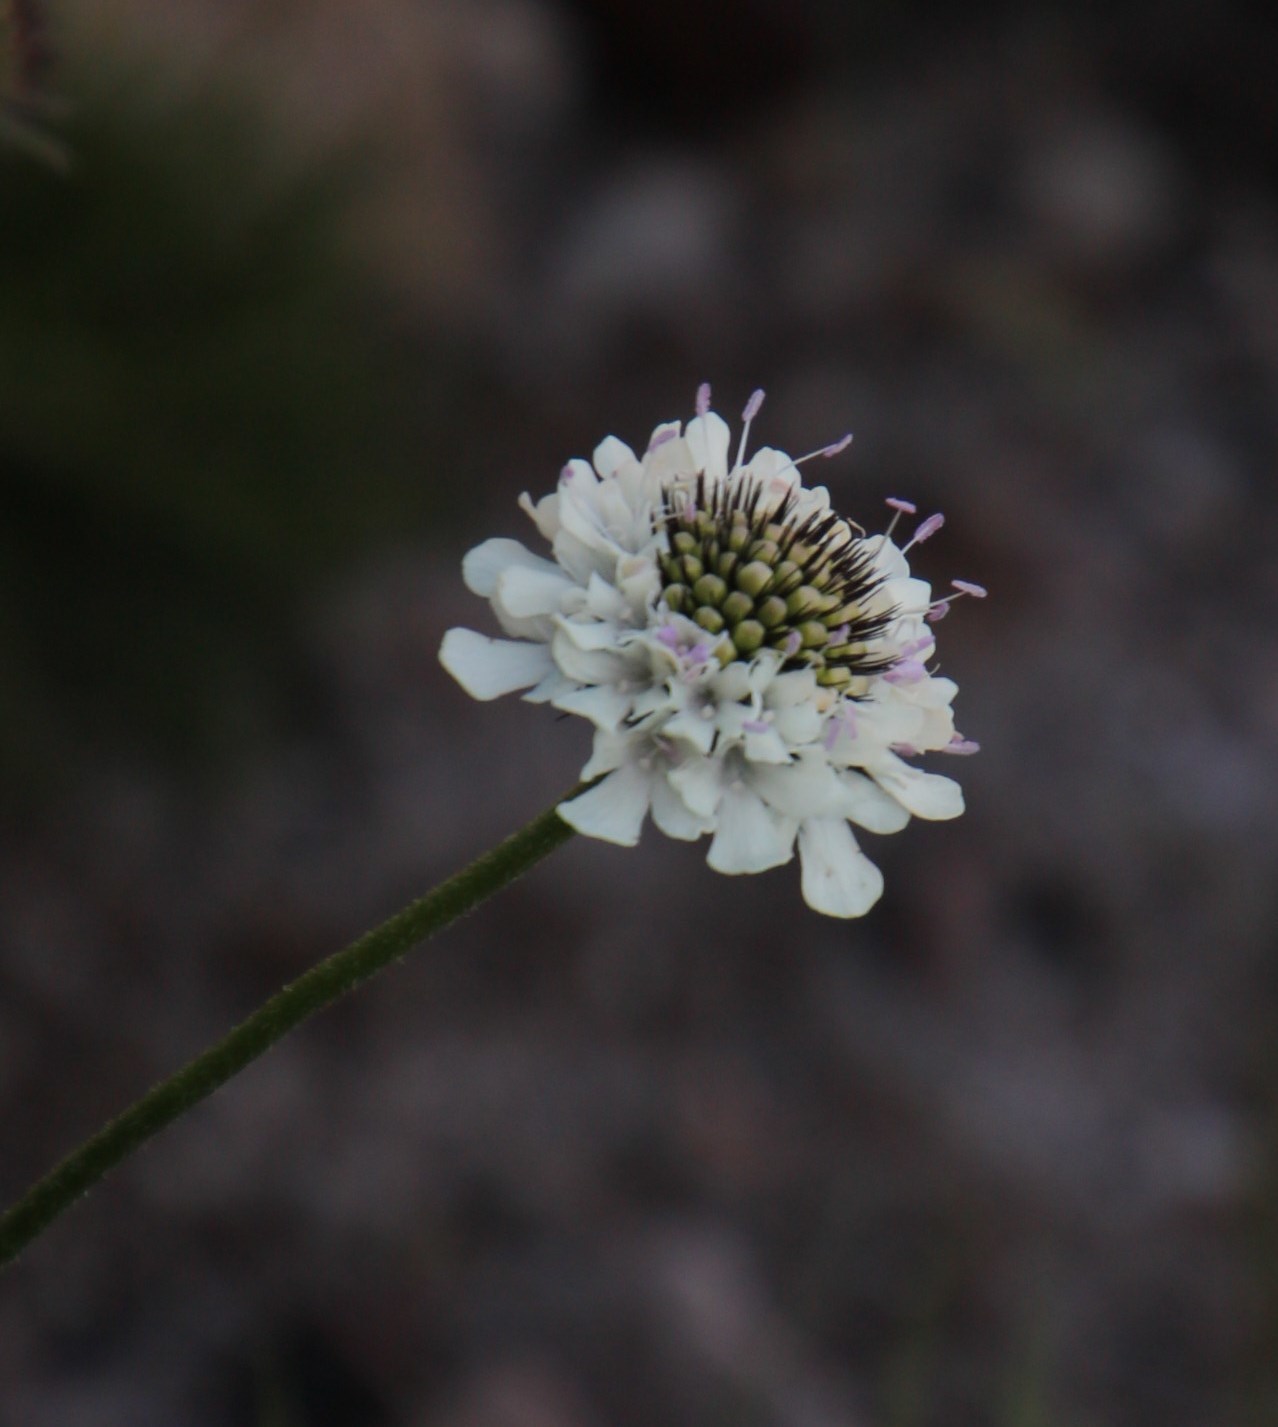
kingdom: Plantae
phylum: Tracheophyta
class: Magnoliopsida
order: Dipsacales
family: Caprifoliaceae
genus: Scabiosa
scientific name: Scabiosa columbaria
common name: Small scabious
